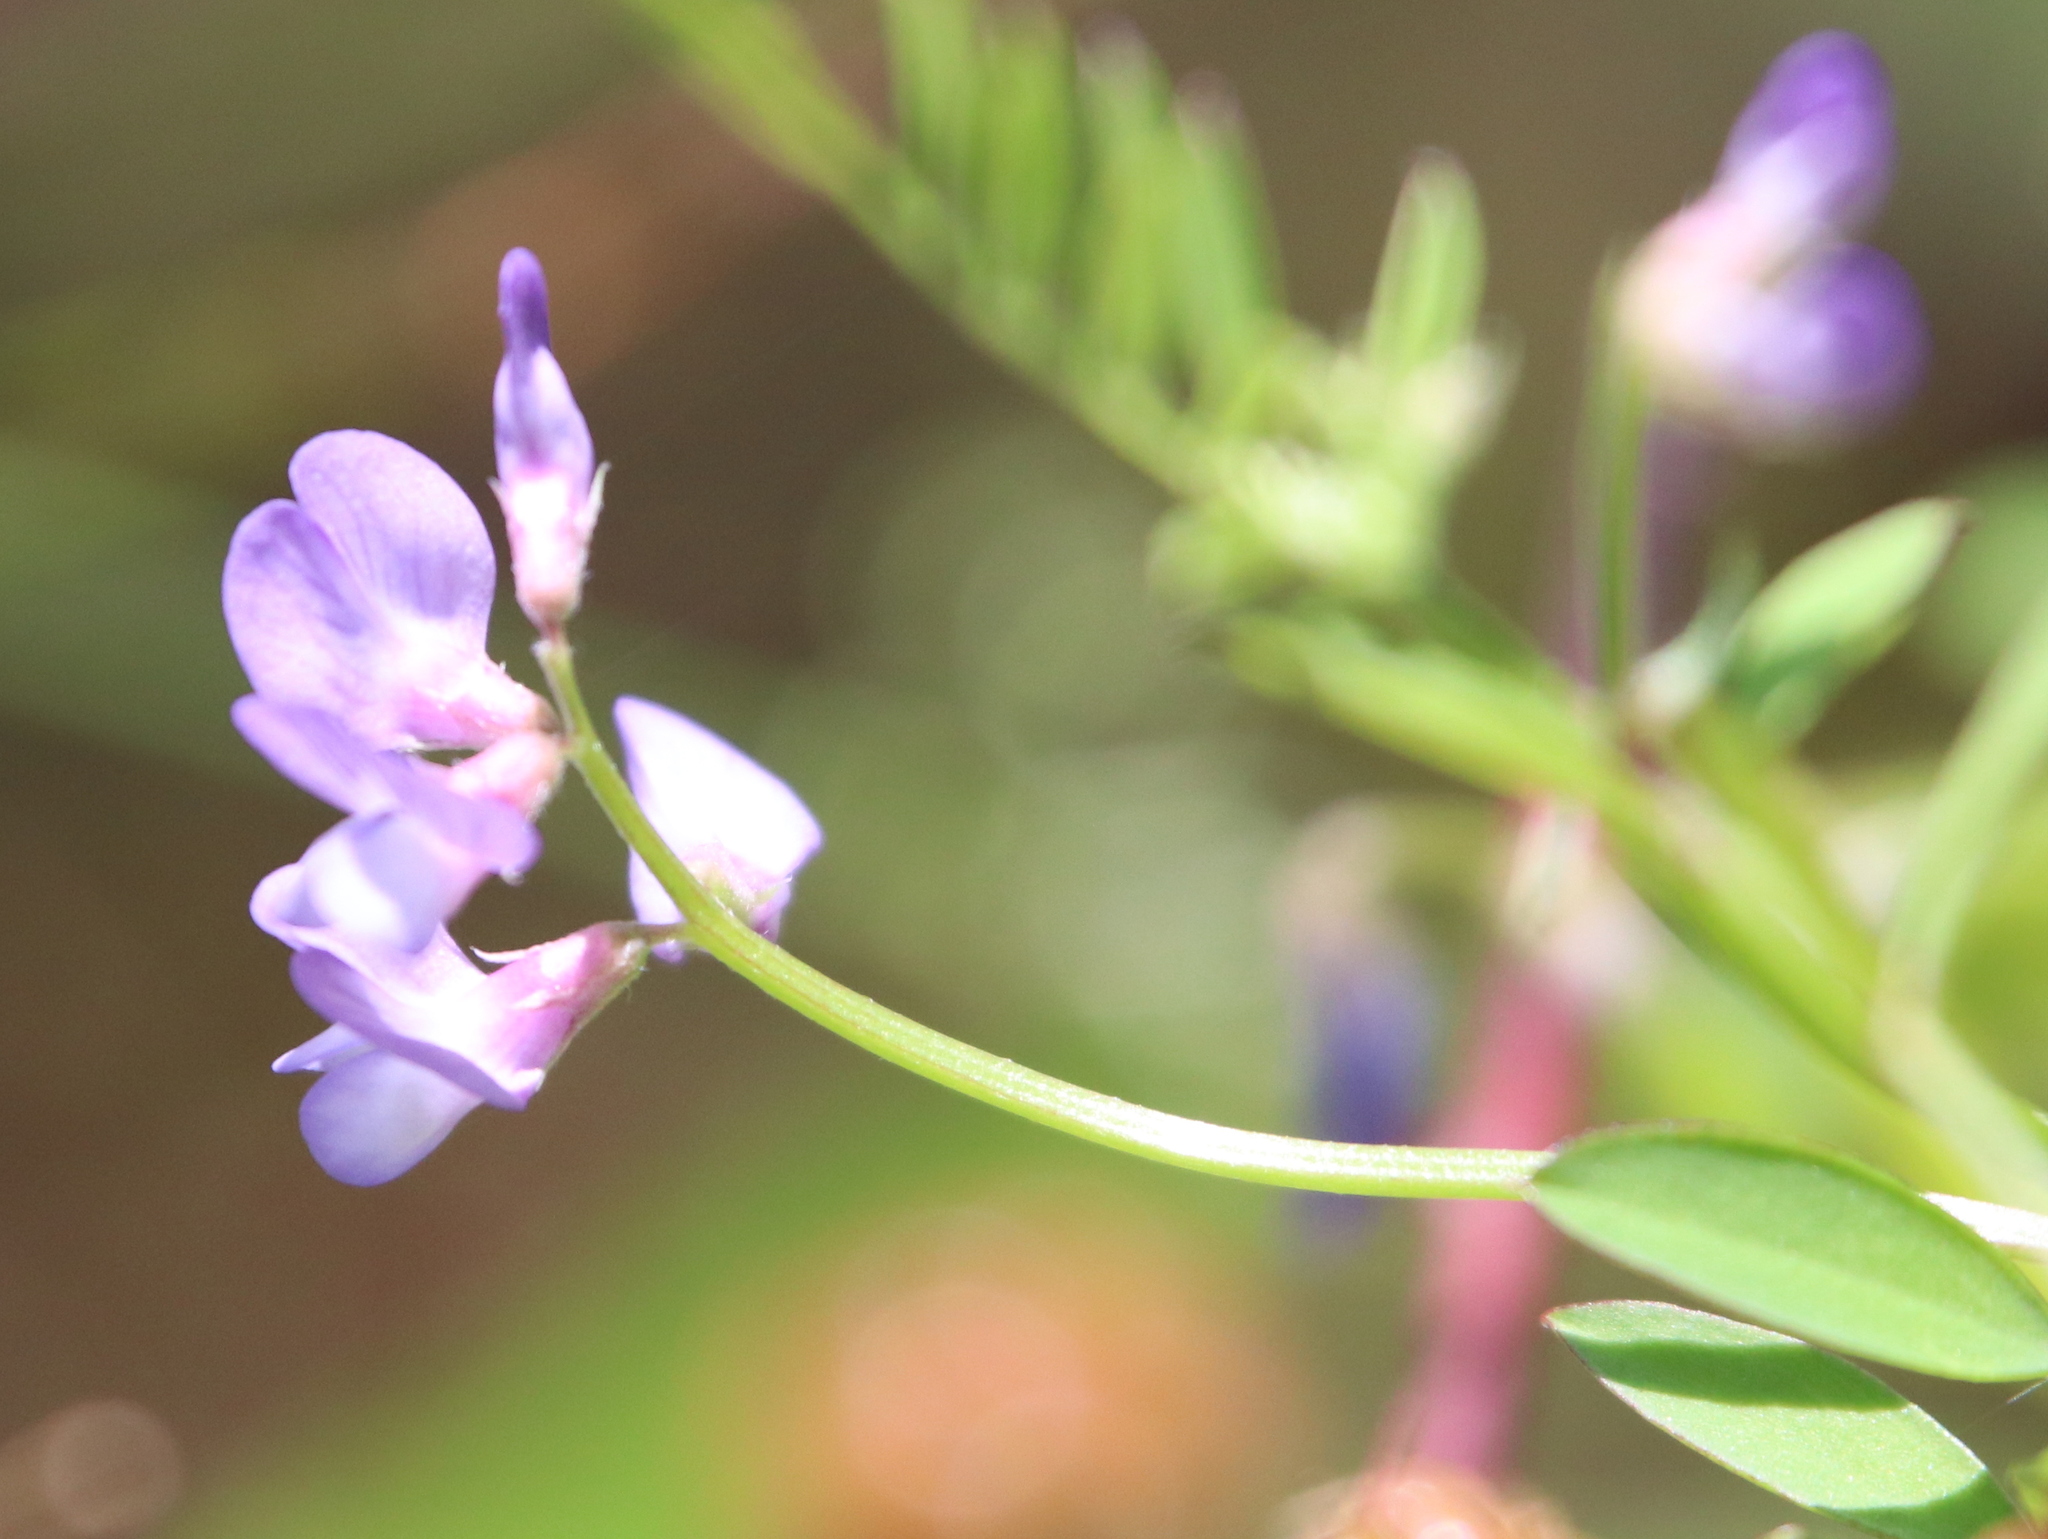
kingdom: Plantae
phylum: Tracheophyta
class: Magnoliopsida
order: Fabales
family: Fabaceae
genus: Vicia
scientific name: Vicia ludoviciana
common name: Louisiana vetch
